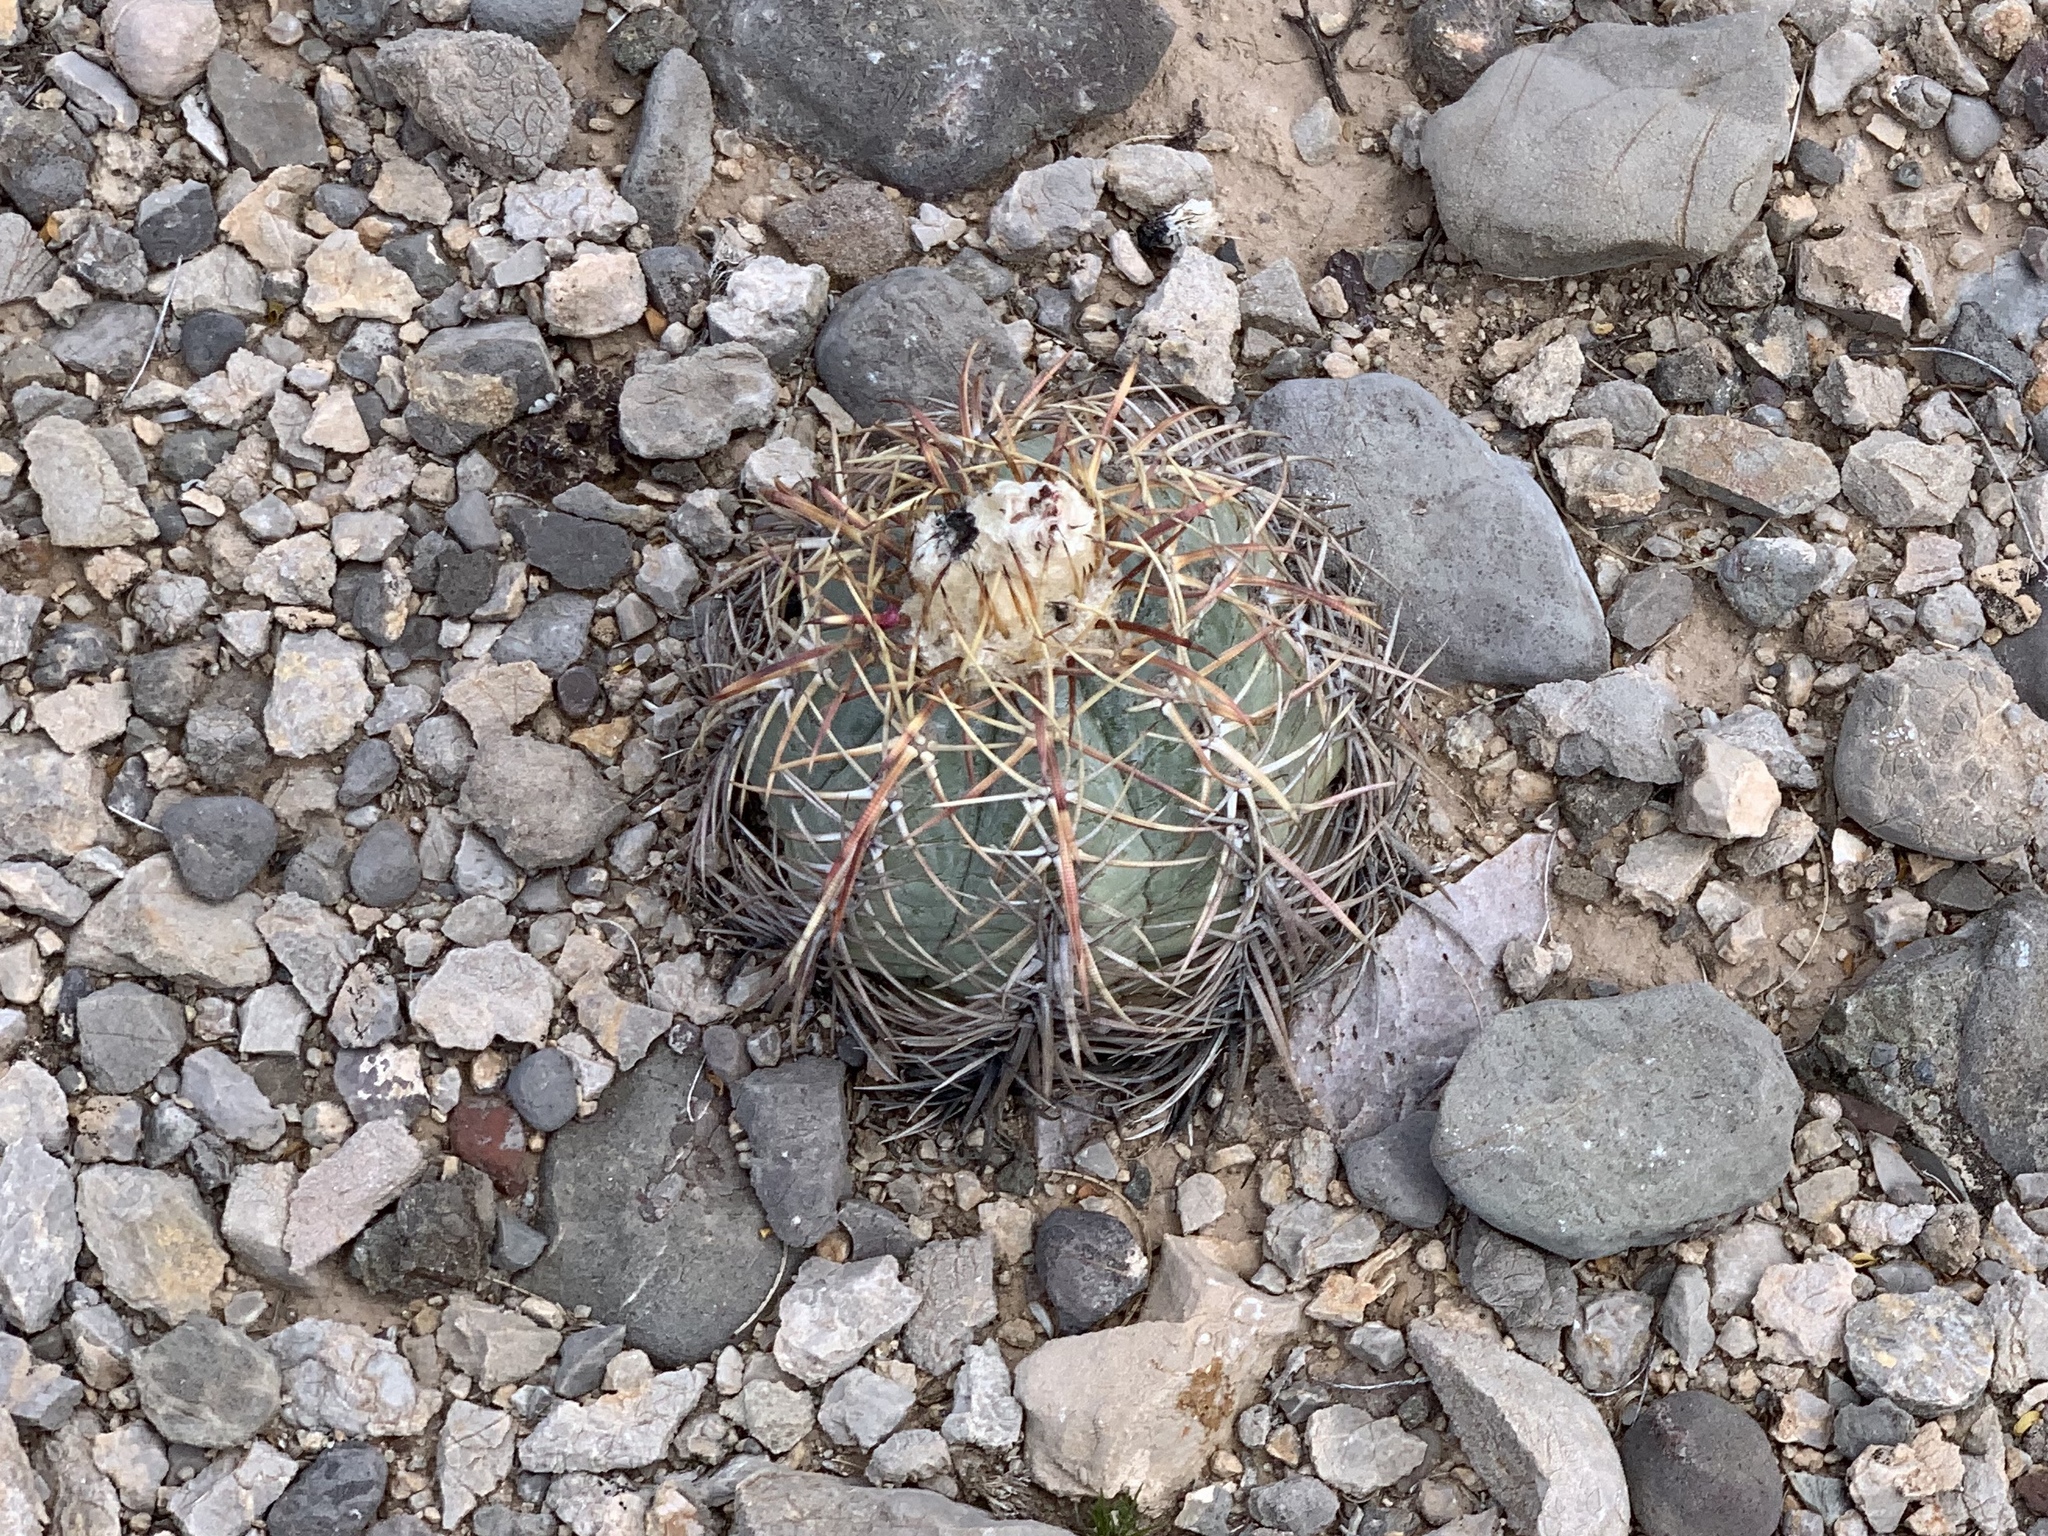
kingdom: Plantae
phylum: Tracheophyta
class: Magnoliopsida
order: Caryophyllales
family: Cactaceae
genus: Echinocactus
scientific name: Echinocactus horizonthalonius
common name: Devilshead
